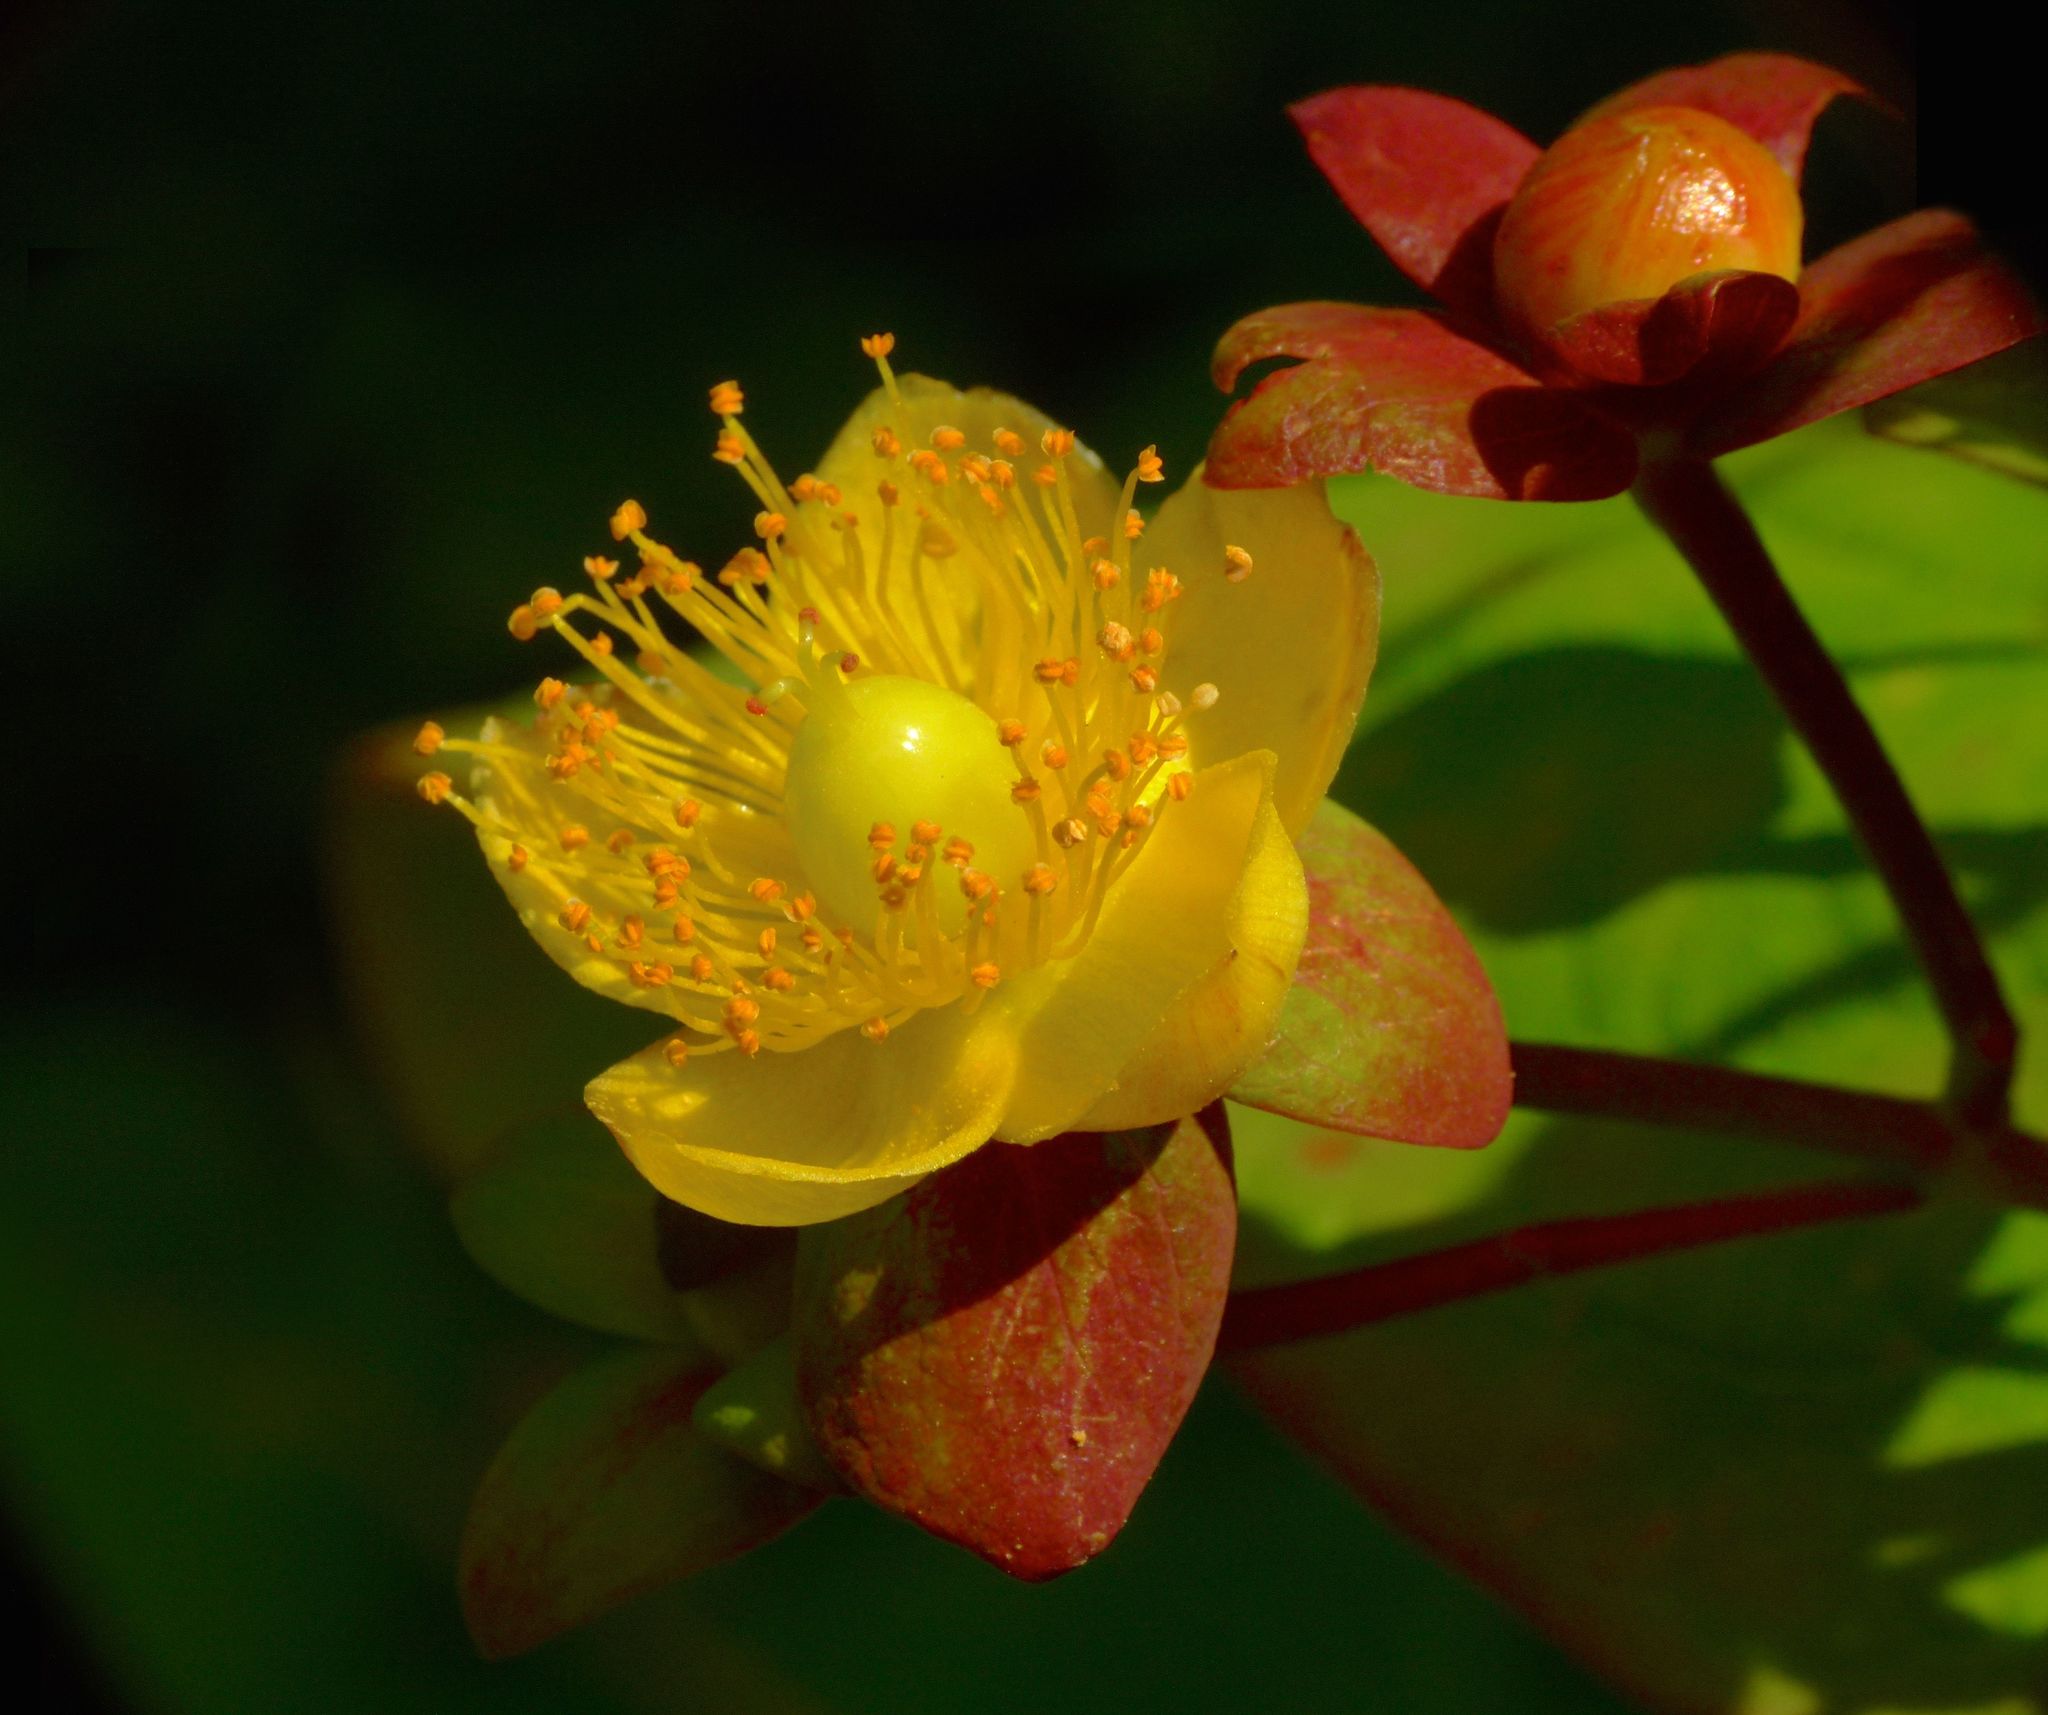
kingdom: Plantae
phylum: Tracheophyta
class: Magnoliopsida
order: Malpighiales
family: Hypericaceae
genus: Hypericum
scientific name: Hypericum androsaemum
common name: Sweet-amber
